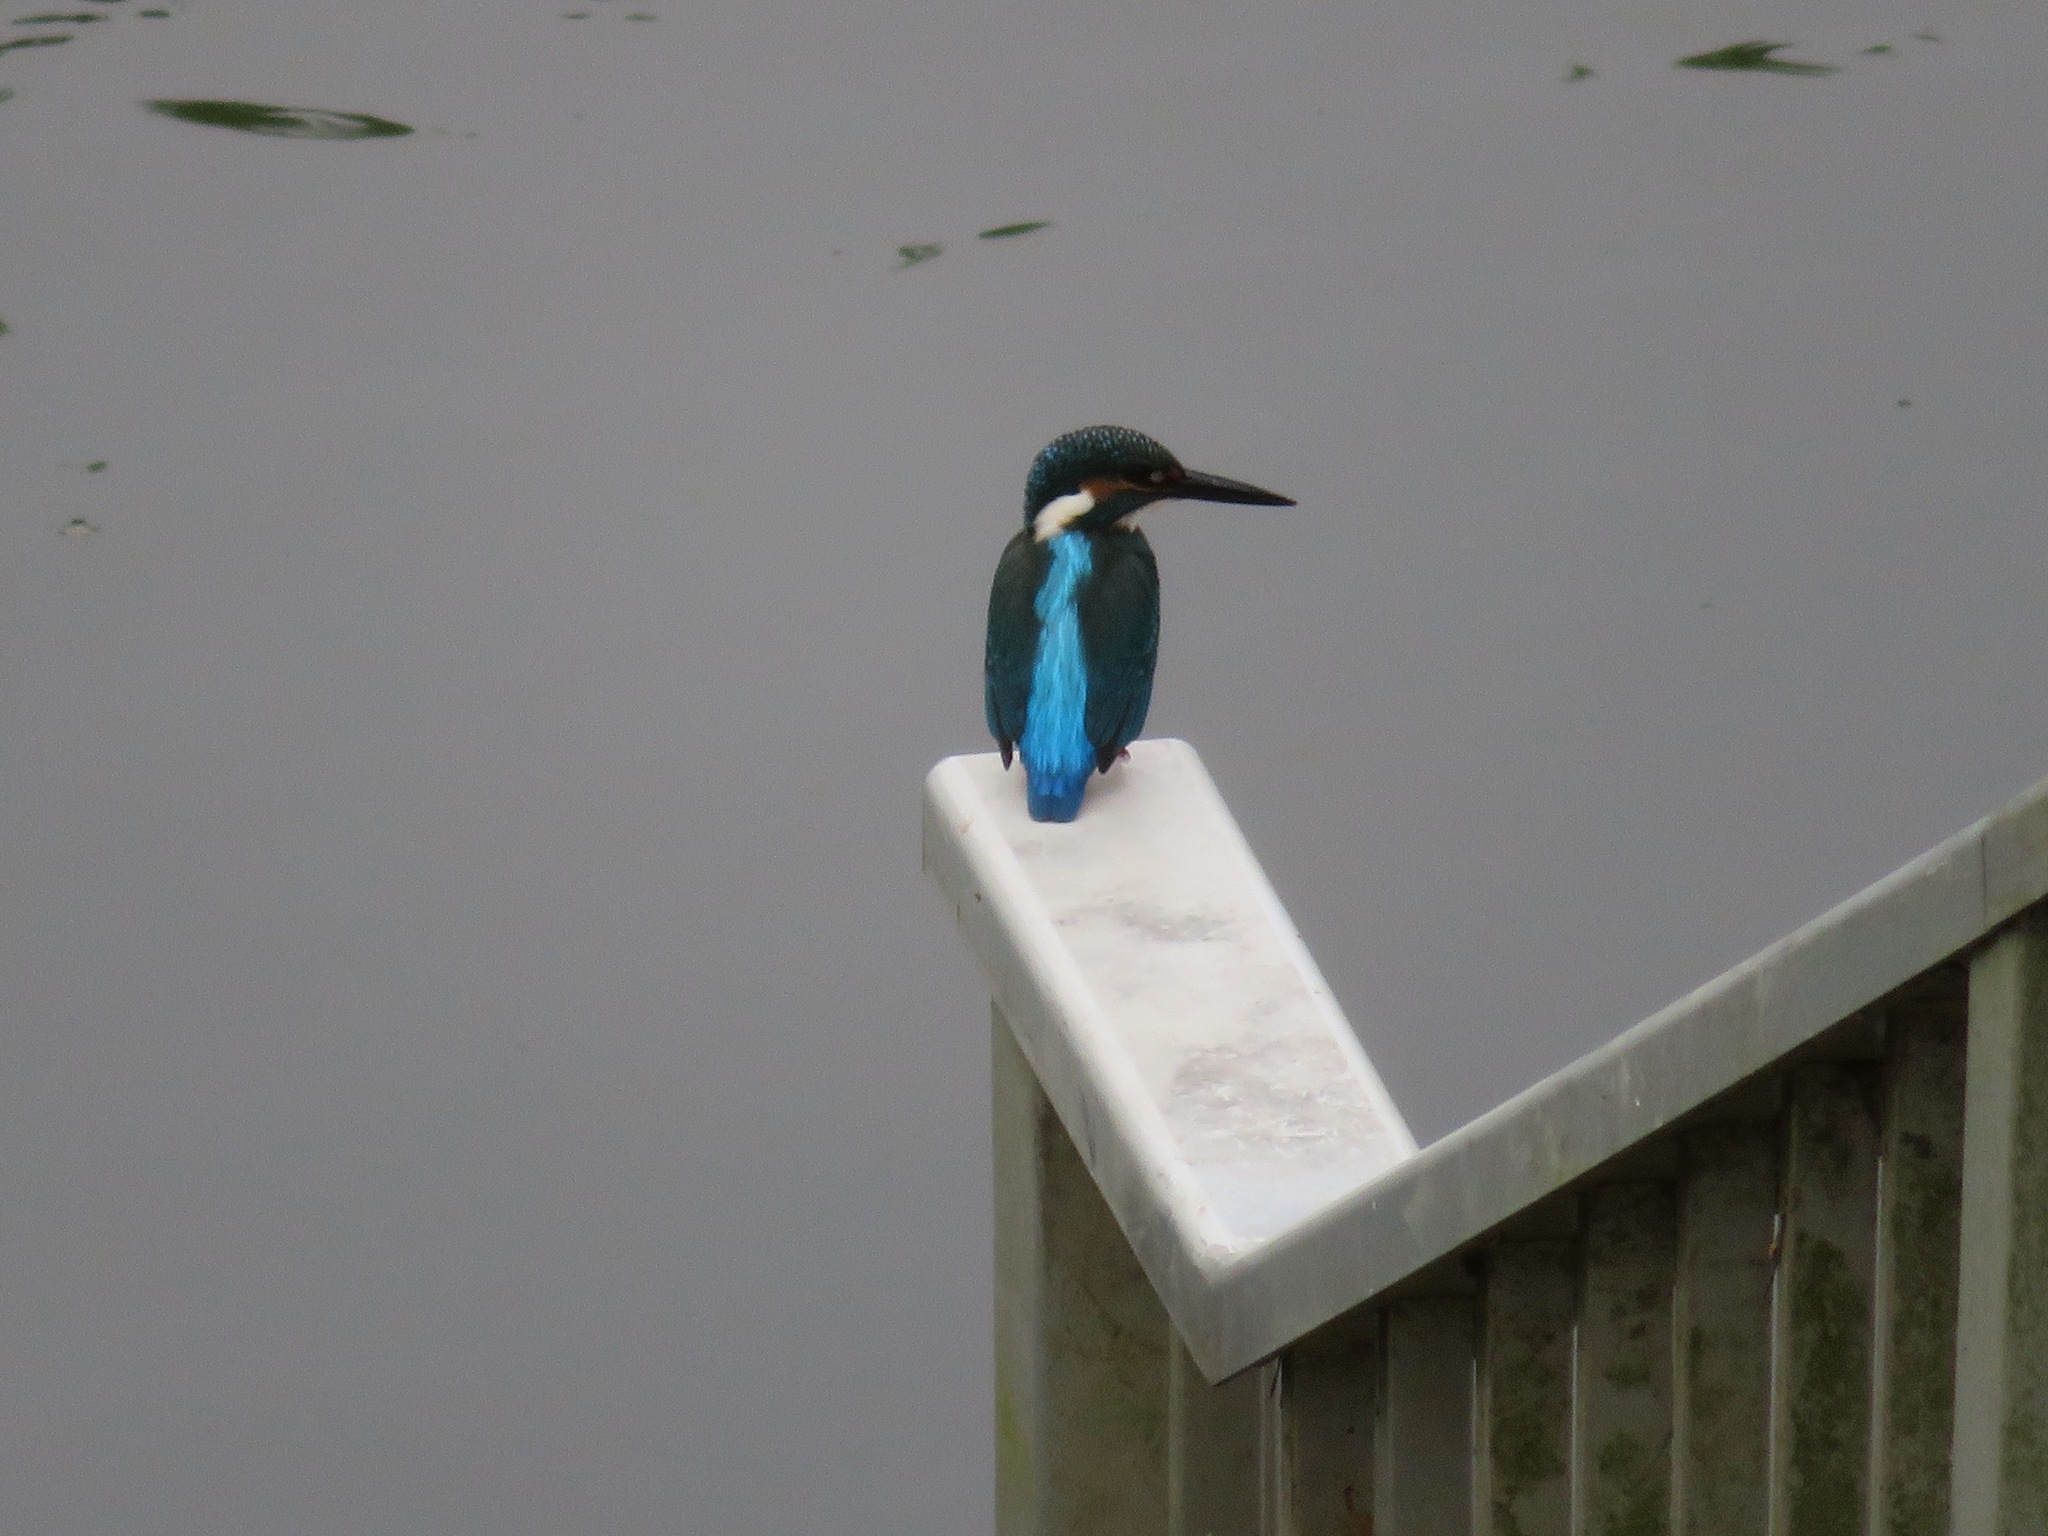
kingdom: Animalia
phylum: Chordata
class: Aves
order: Coraciiformes
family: Alcedinidae
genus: Alcedo
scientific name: Alcedo atthis
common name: Common kingfisher
